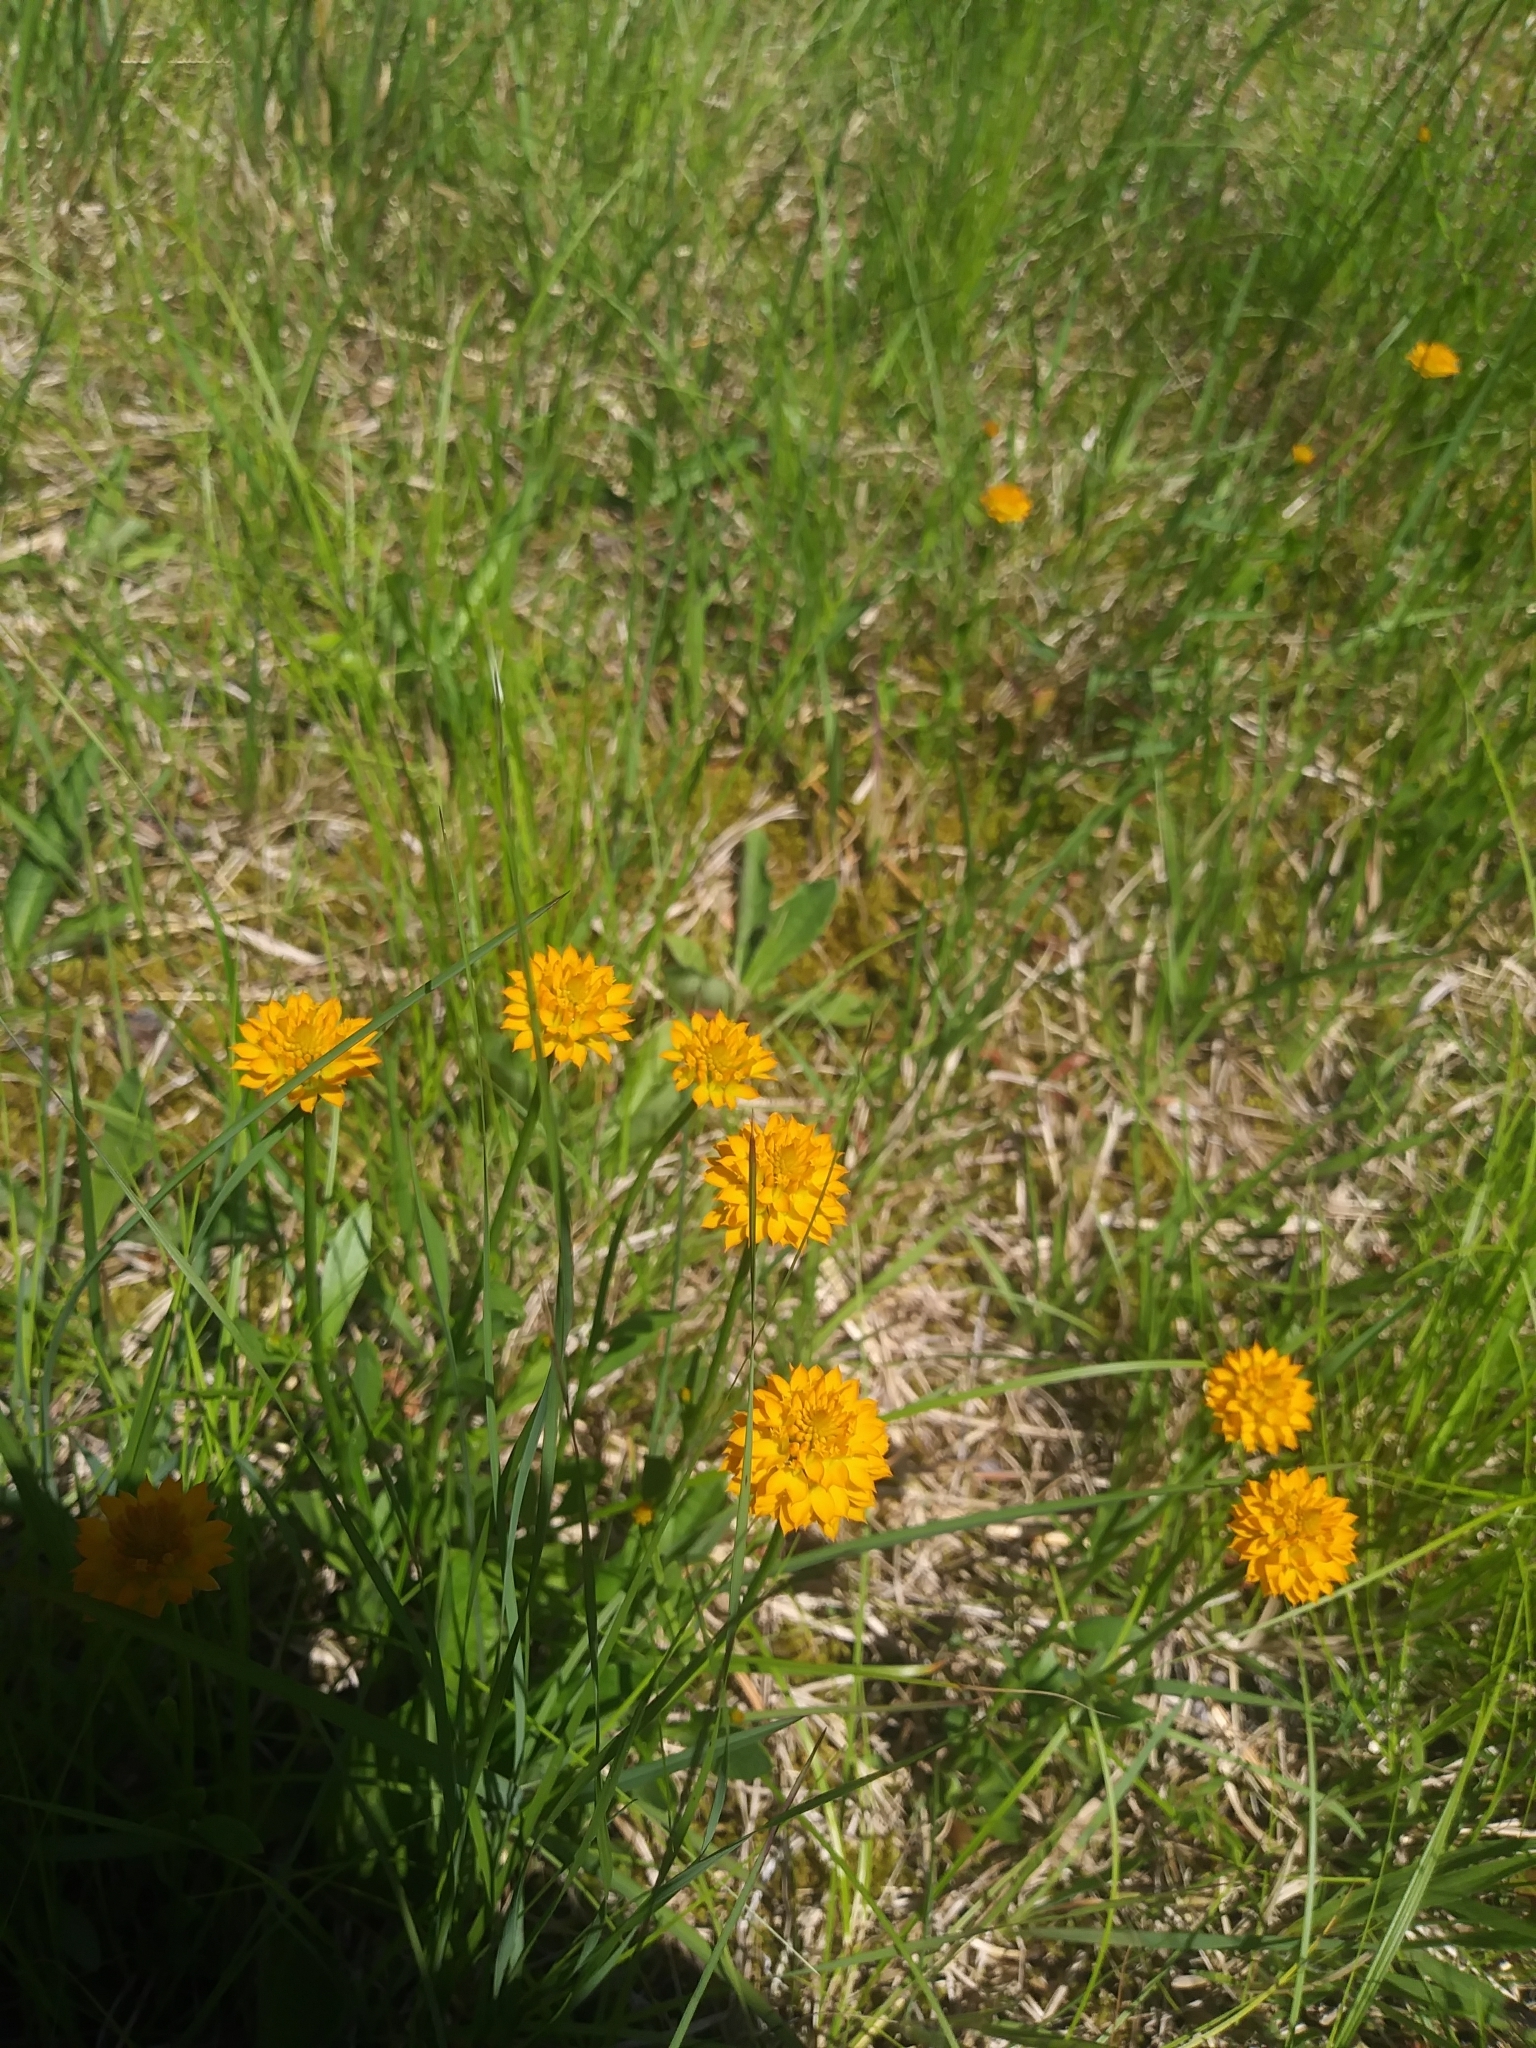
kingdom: Plantae
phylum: Tracheophyta
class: Magnoliopsida
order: Fabales
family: Polygalaceae
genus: Polygala
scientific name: Polygala lutea
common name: Orange milkwort
